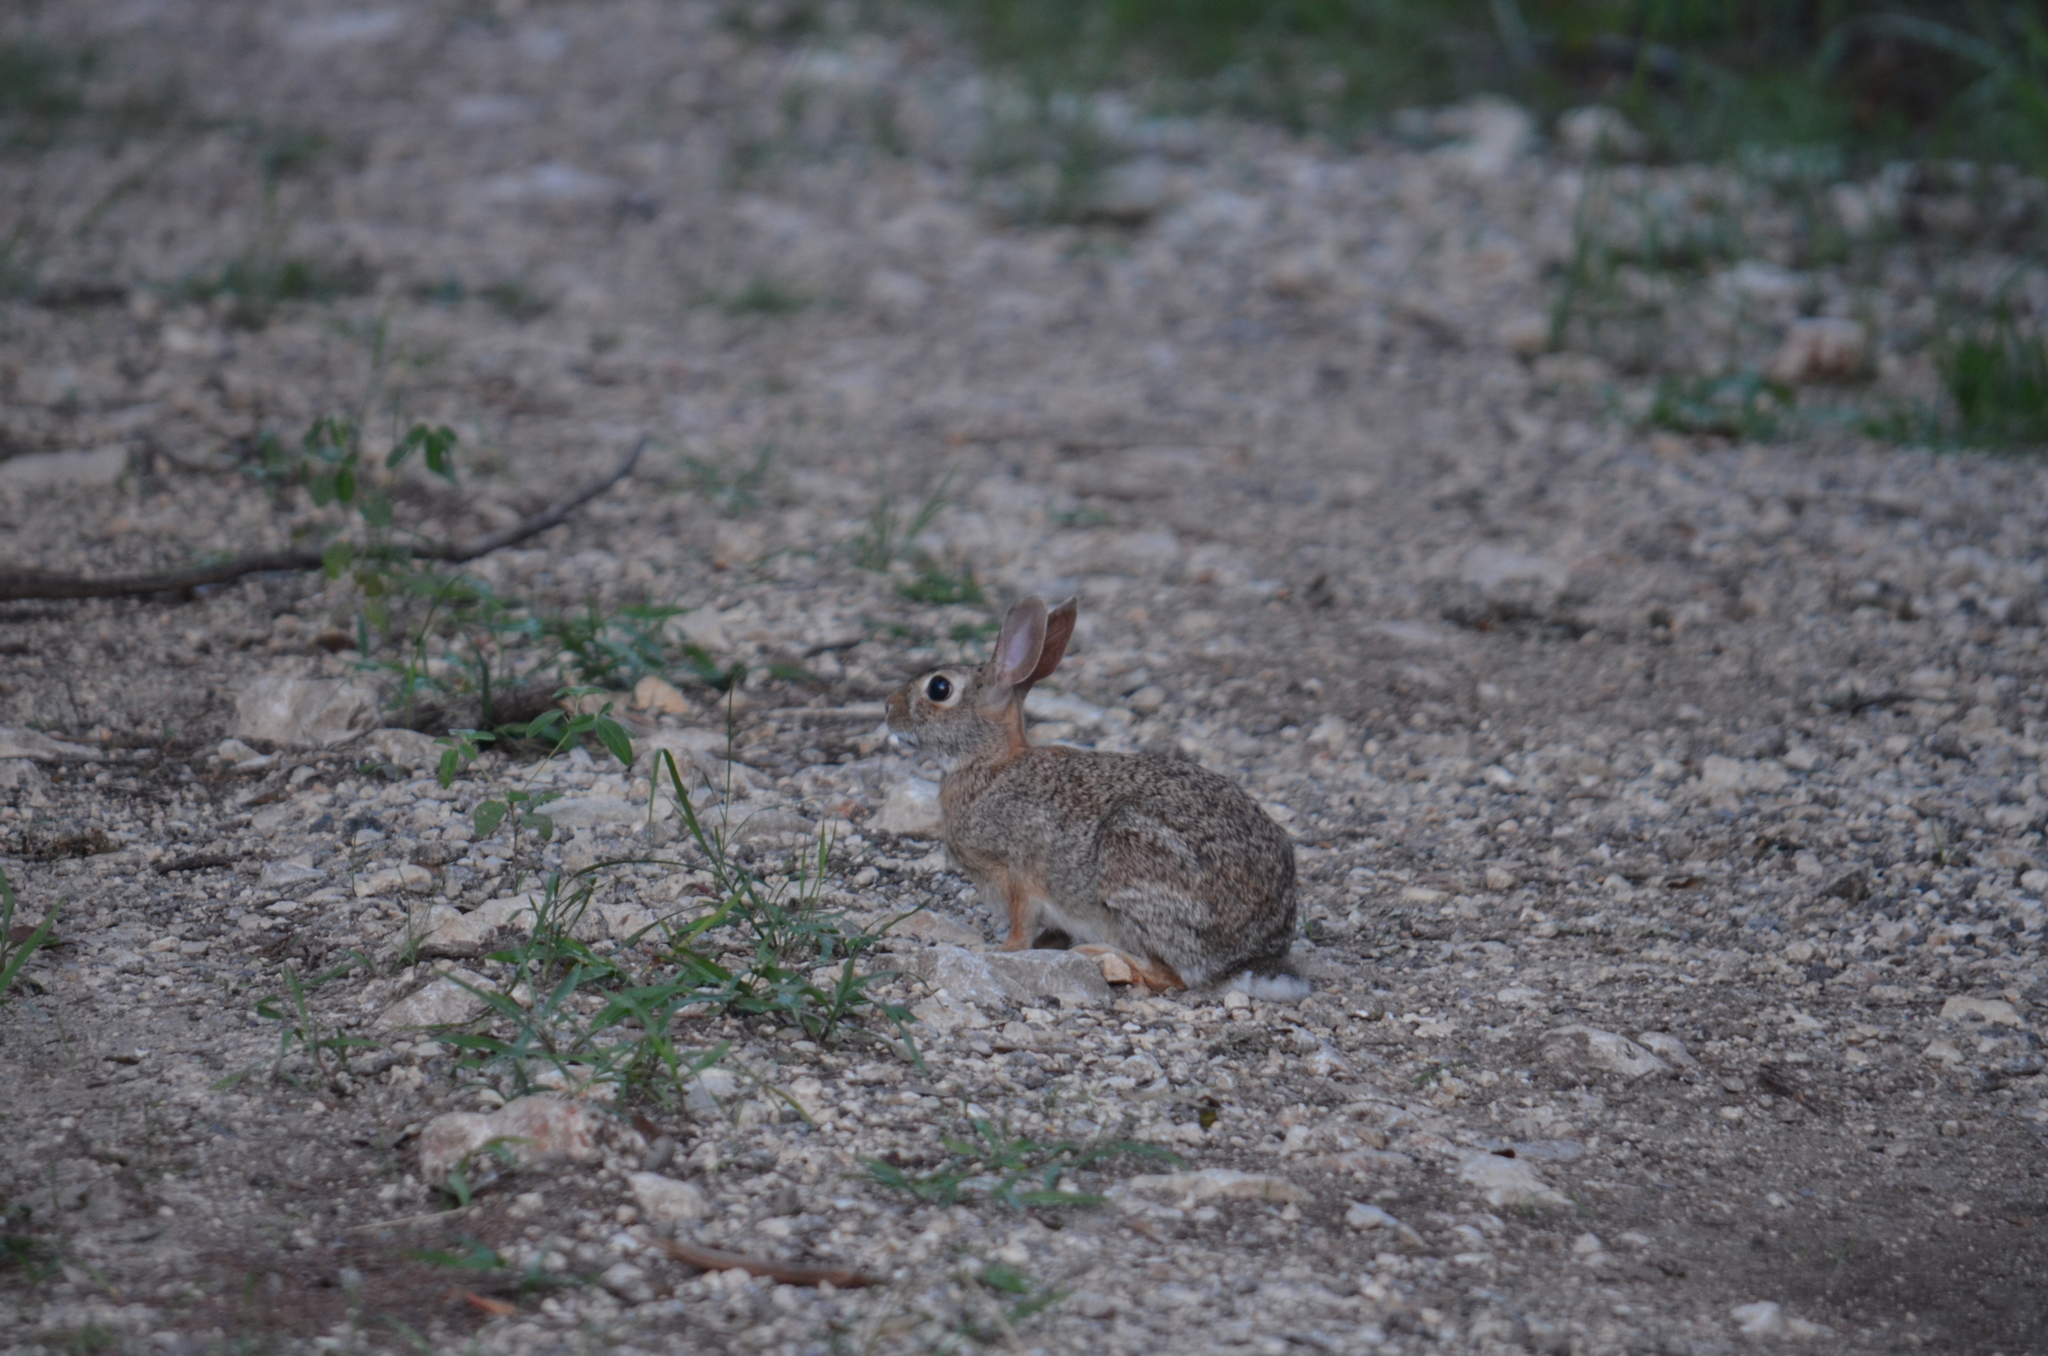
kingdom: Animalia
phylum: Chordata
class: Mammalia
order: Lagomorpha
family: Leporidae
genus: Sylvilagus
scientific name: Sylvilagus floridanus
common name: Eastern cottontail
